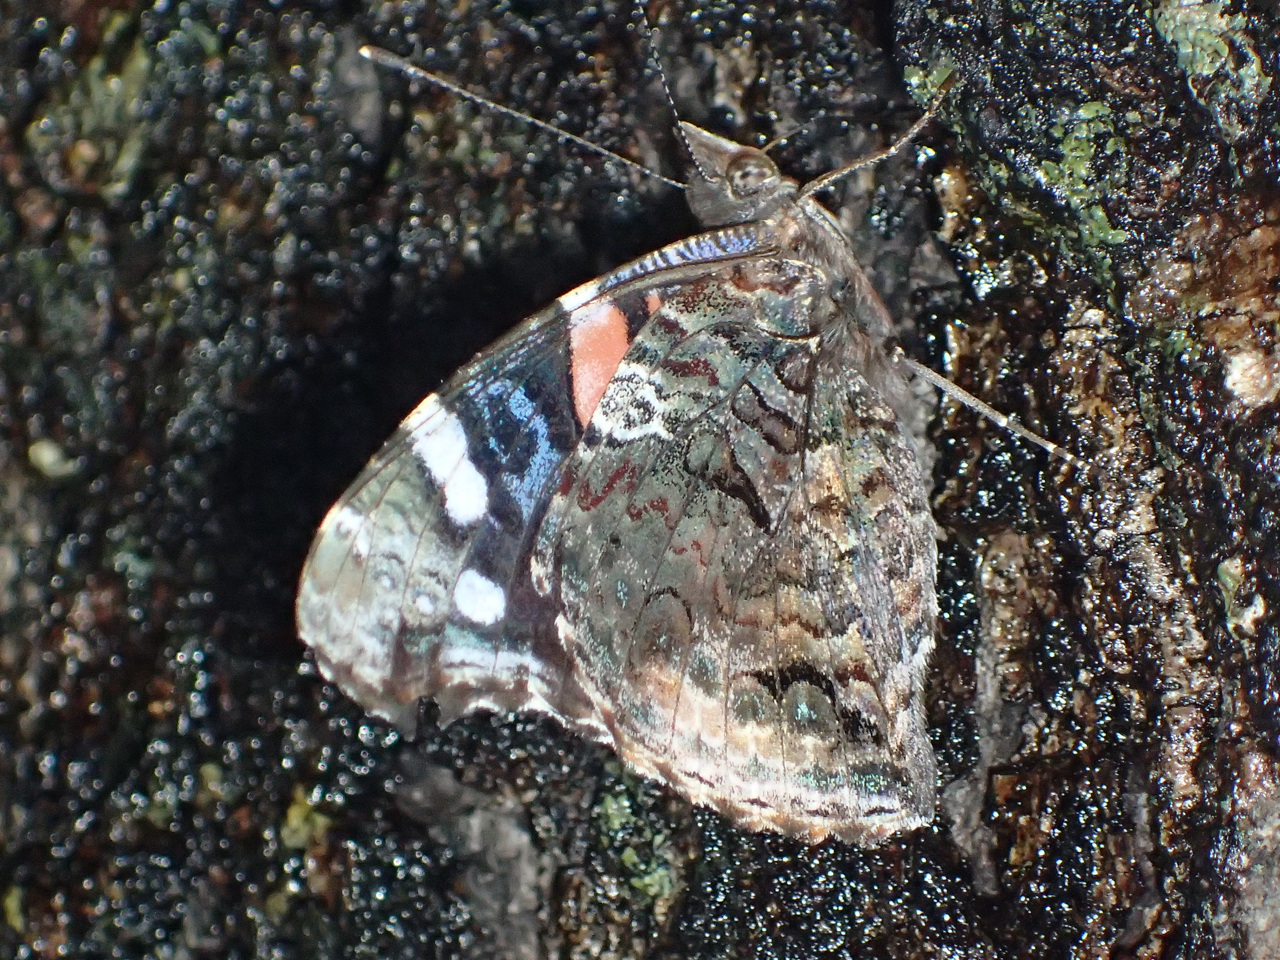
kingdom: Animalia
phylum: Arthropoda
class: Insecta
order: Lepidoptera
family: Nymphalidae
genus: Vanessa
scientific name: Vanessa atalanta
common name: Red admiral
